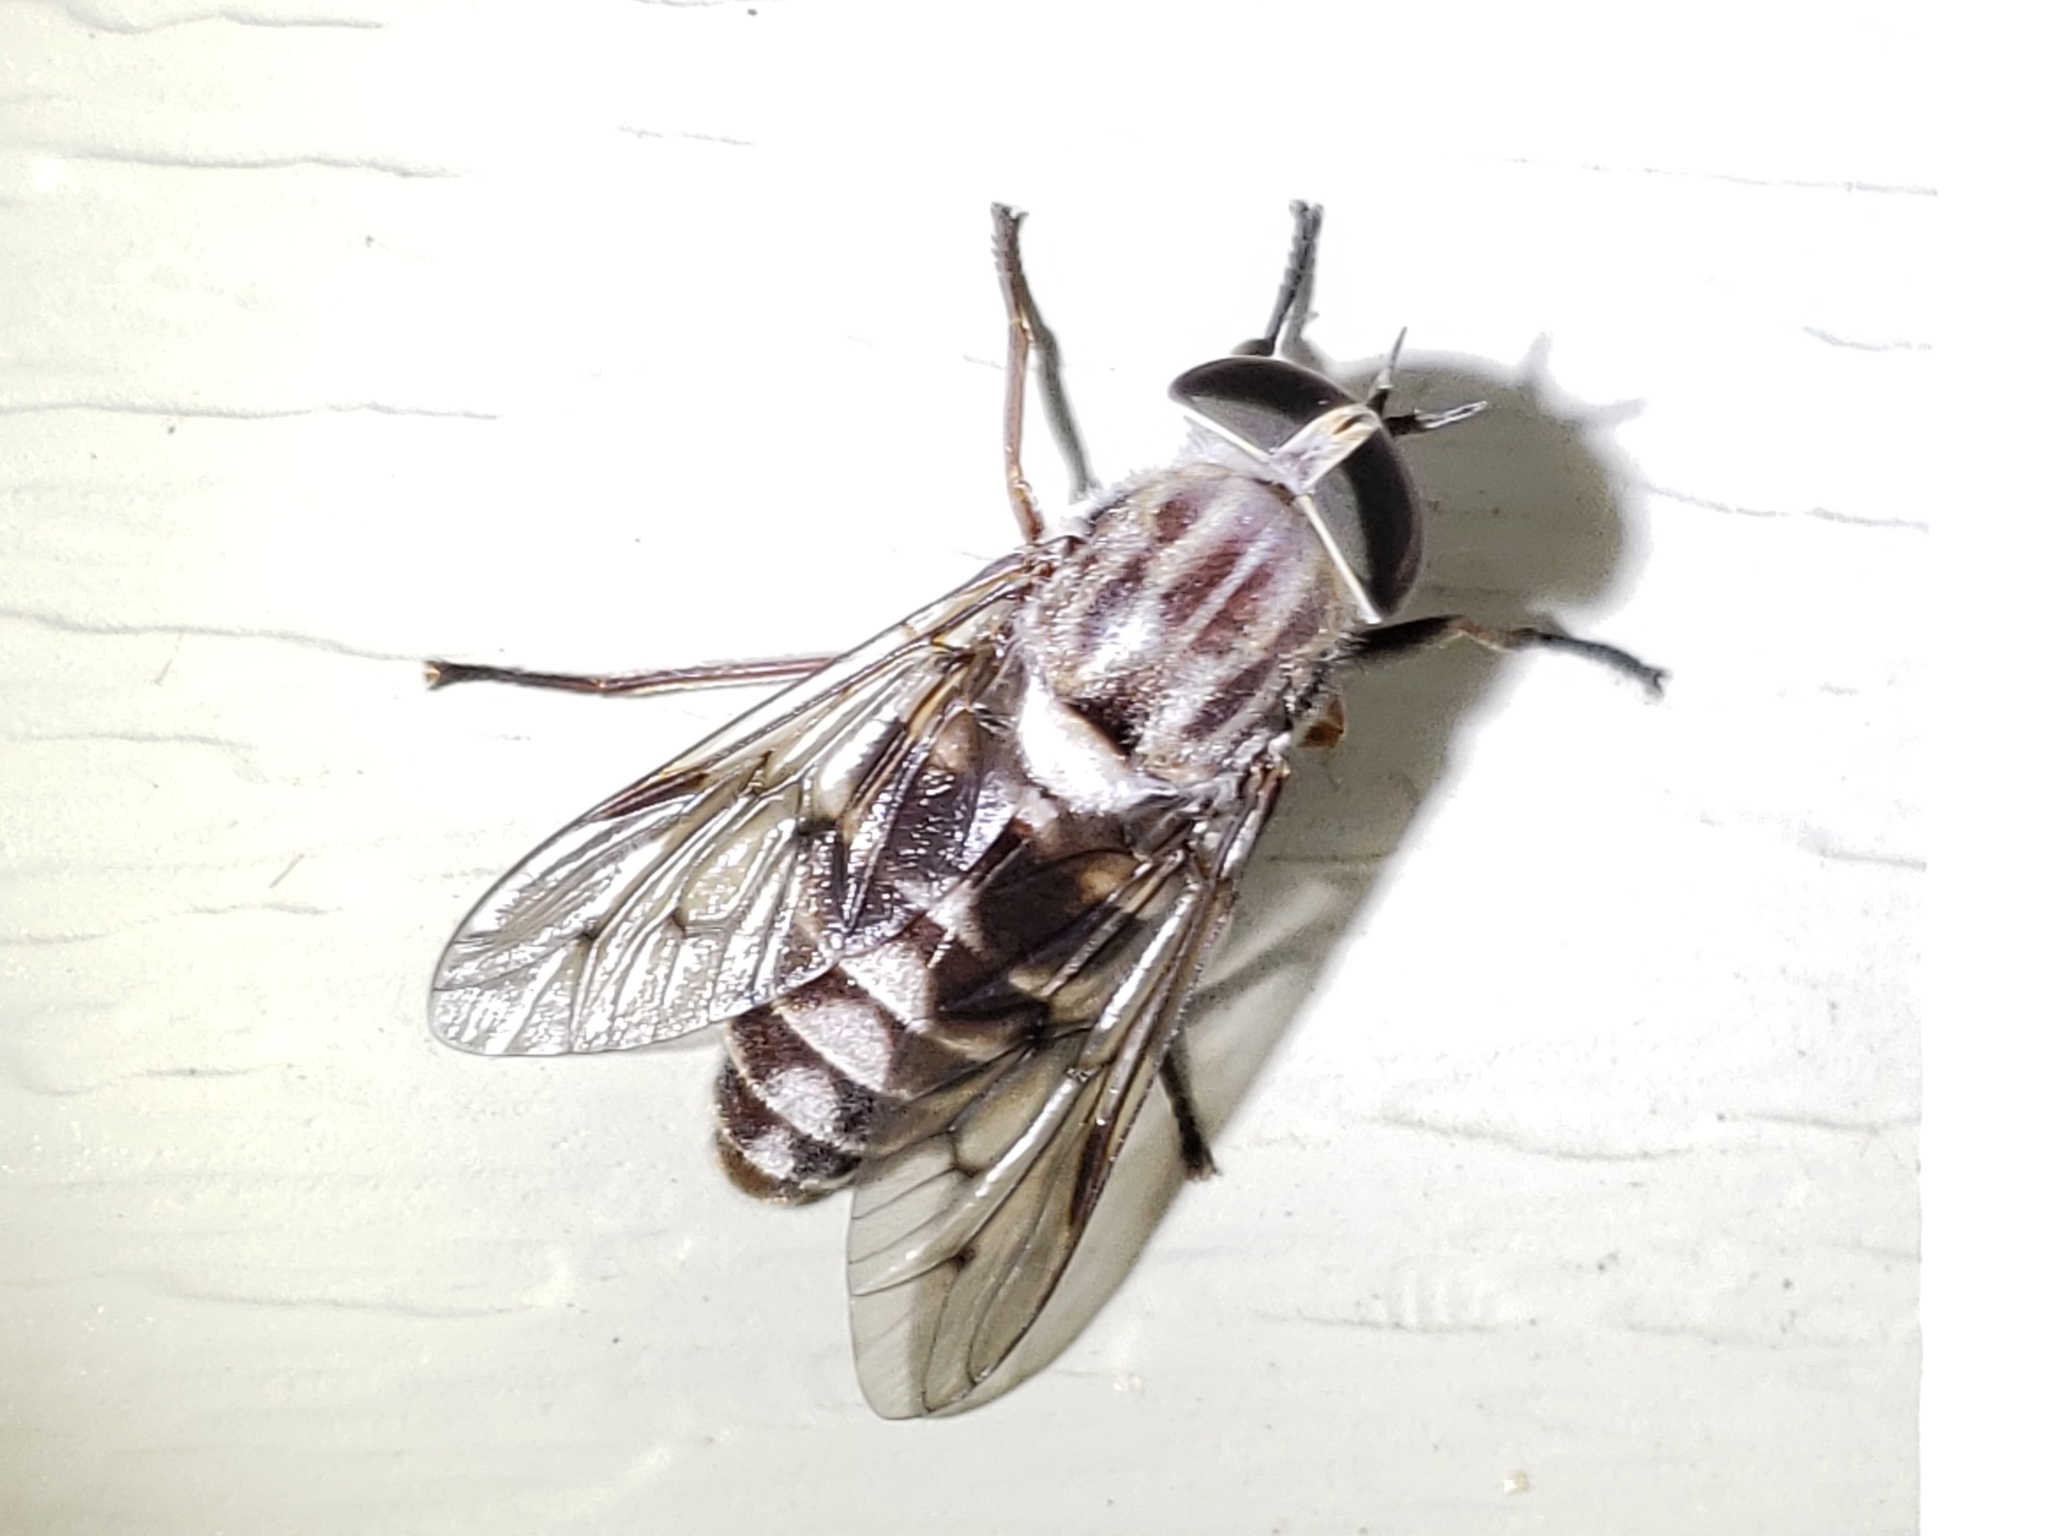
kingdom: Animalia
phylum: Arthropoda
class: Insecta
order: Diptera
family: Tabanidae
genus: Tabanus
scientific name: Tabanus molestus
